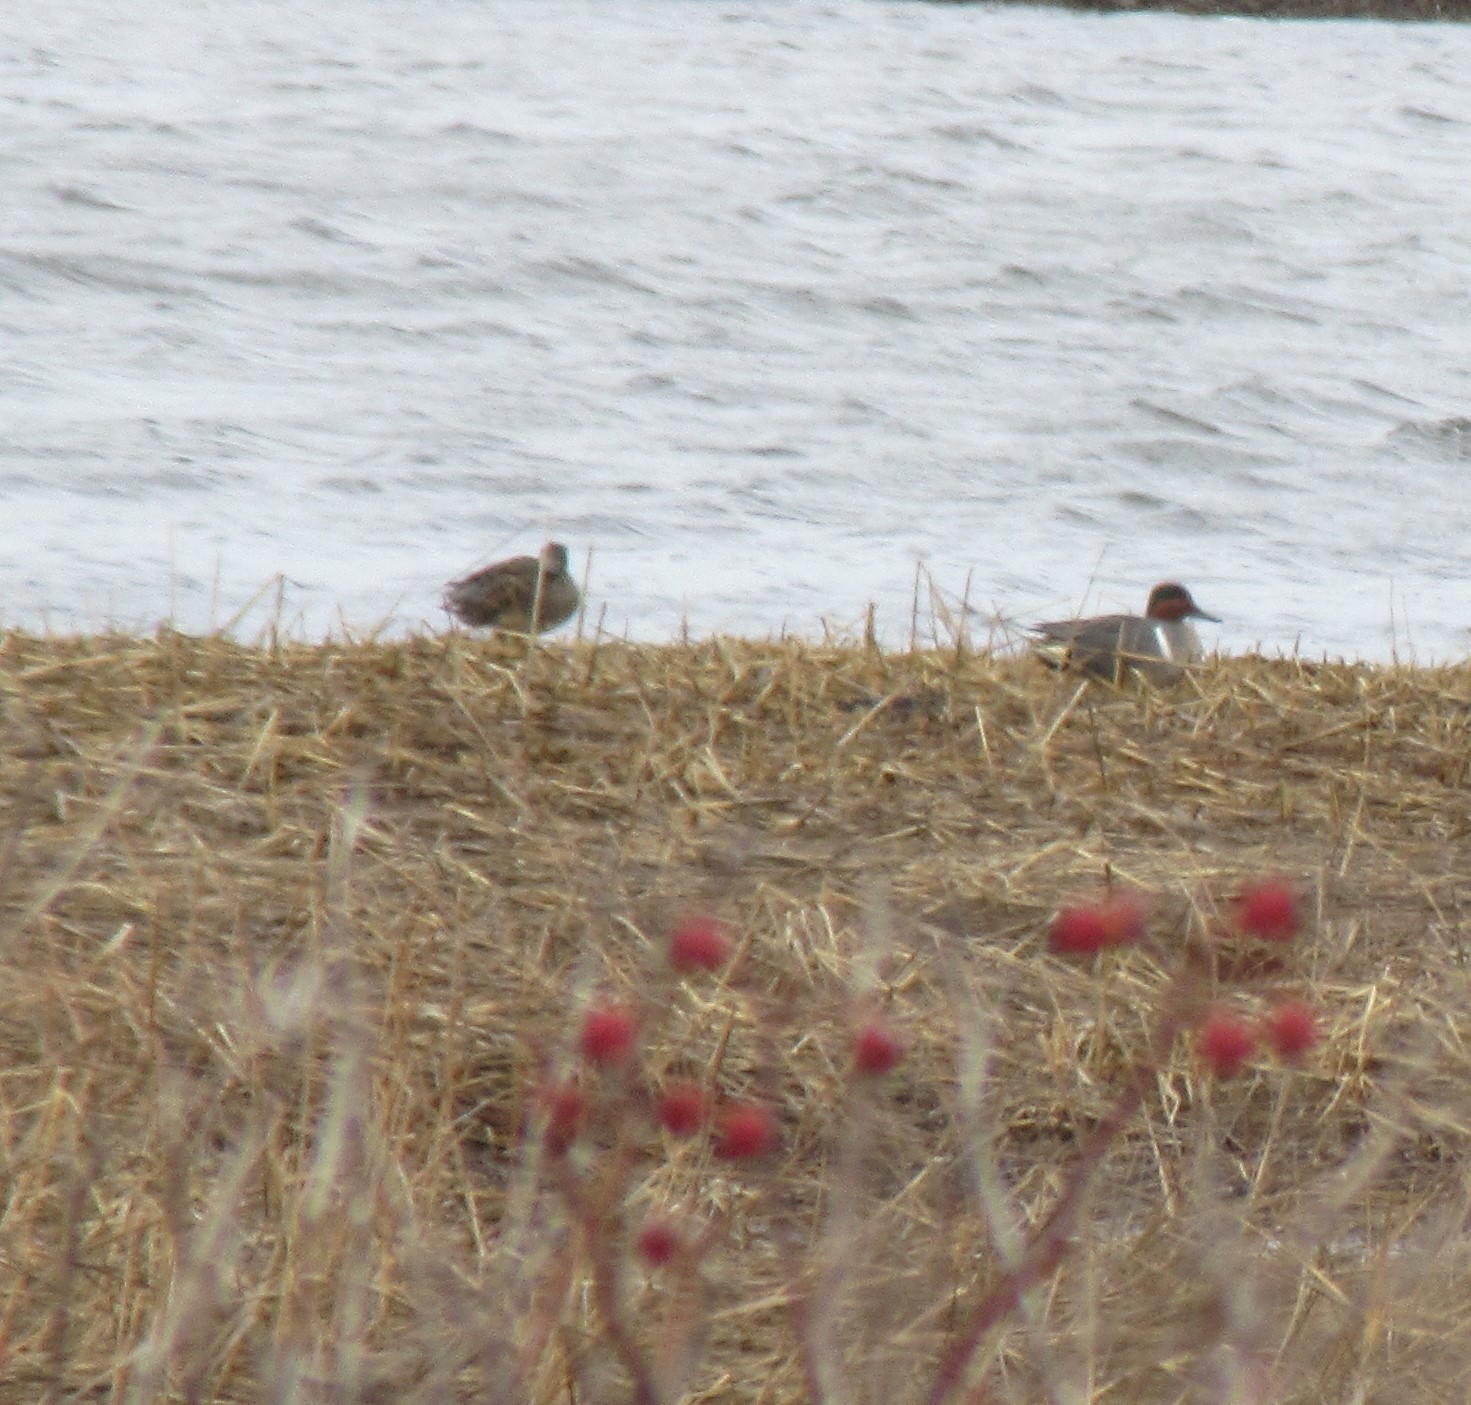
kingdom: Animalia
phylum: Chordata
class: Aves
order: Anseriformes
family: Anatidae
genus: Anas
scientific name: Anas crecca
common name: Eurasian teal
